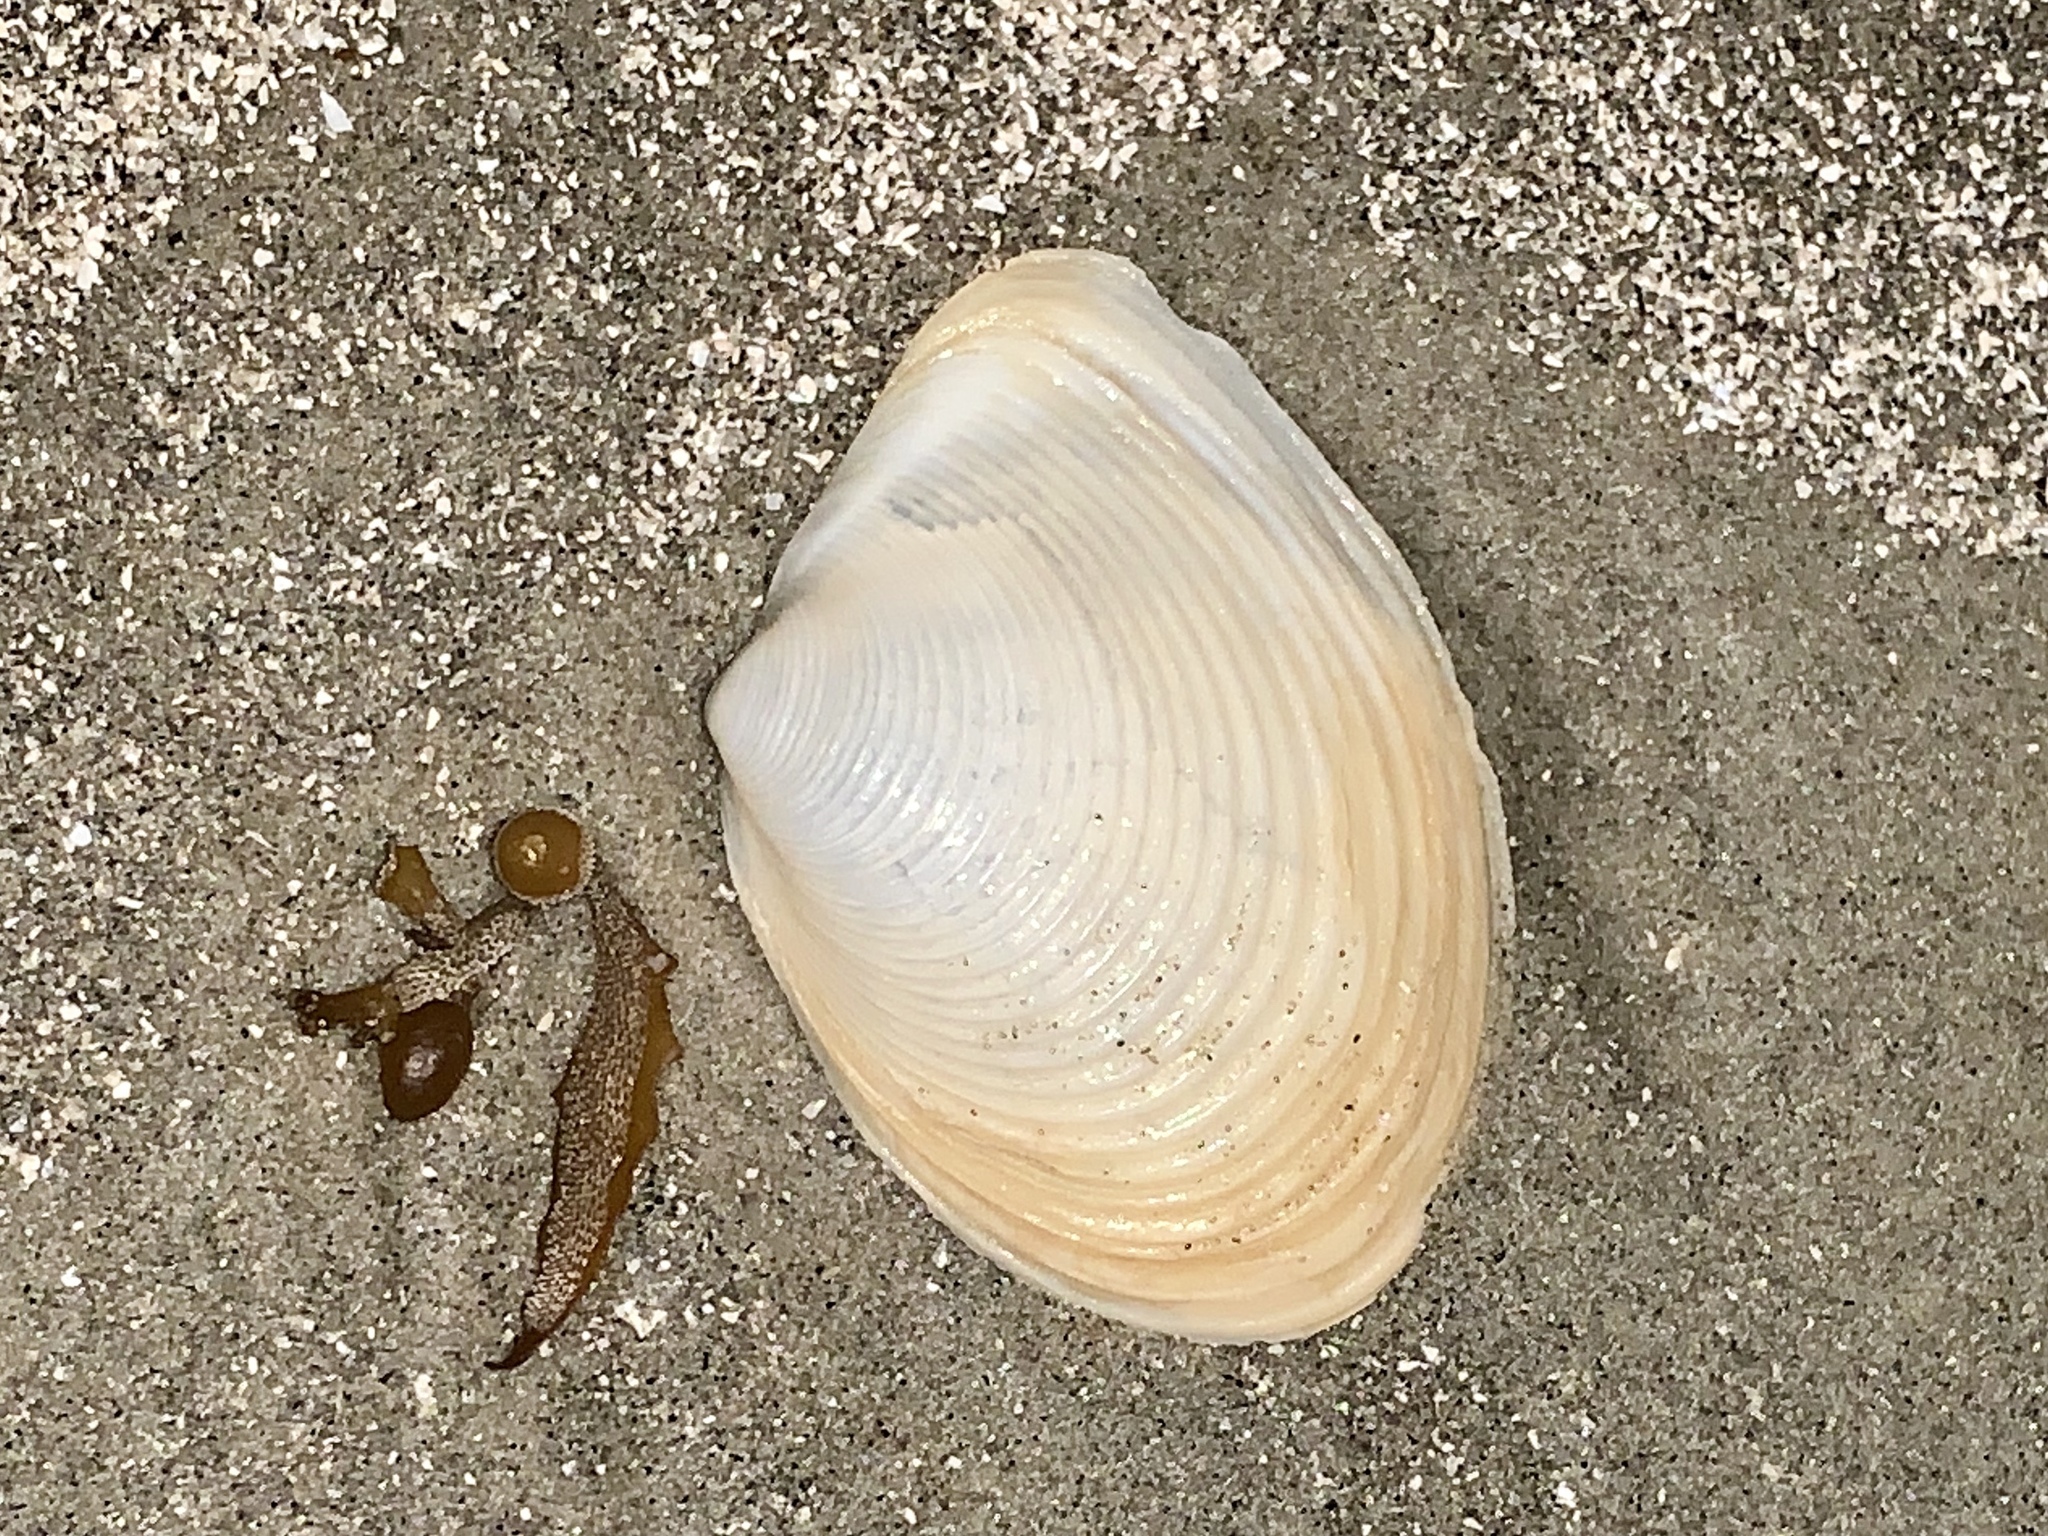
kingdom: Animalia
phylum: Mollusca
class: Bivalvia
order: Venerida
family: Anatinellidae
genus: Raeta
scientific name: Raeta plicatella
